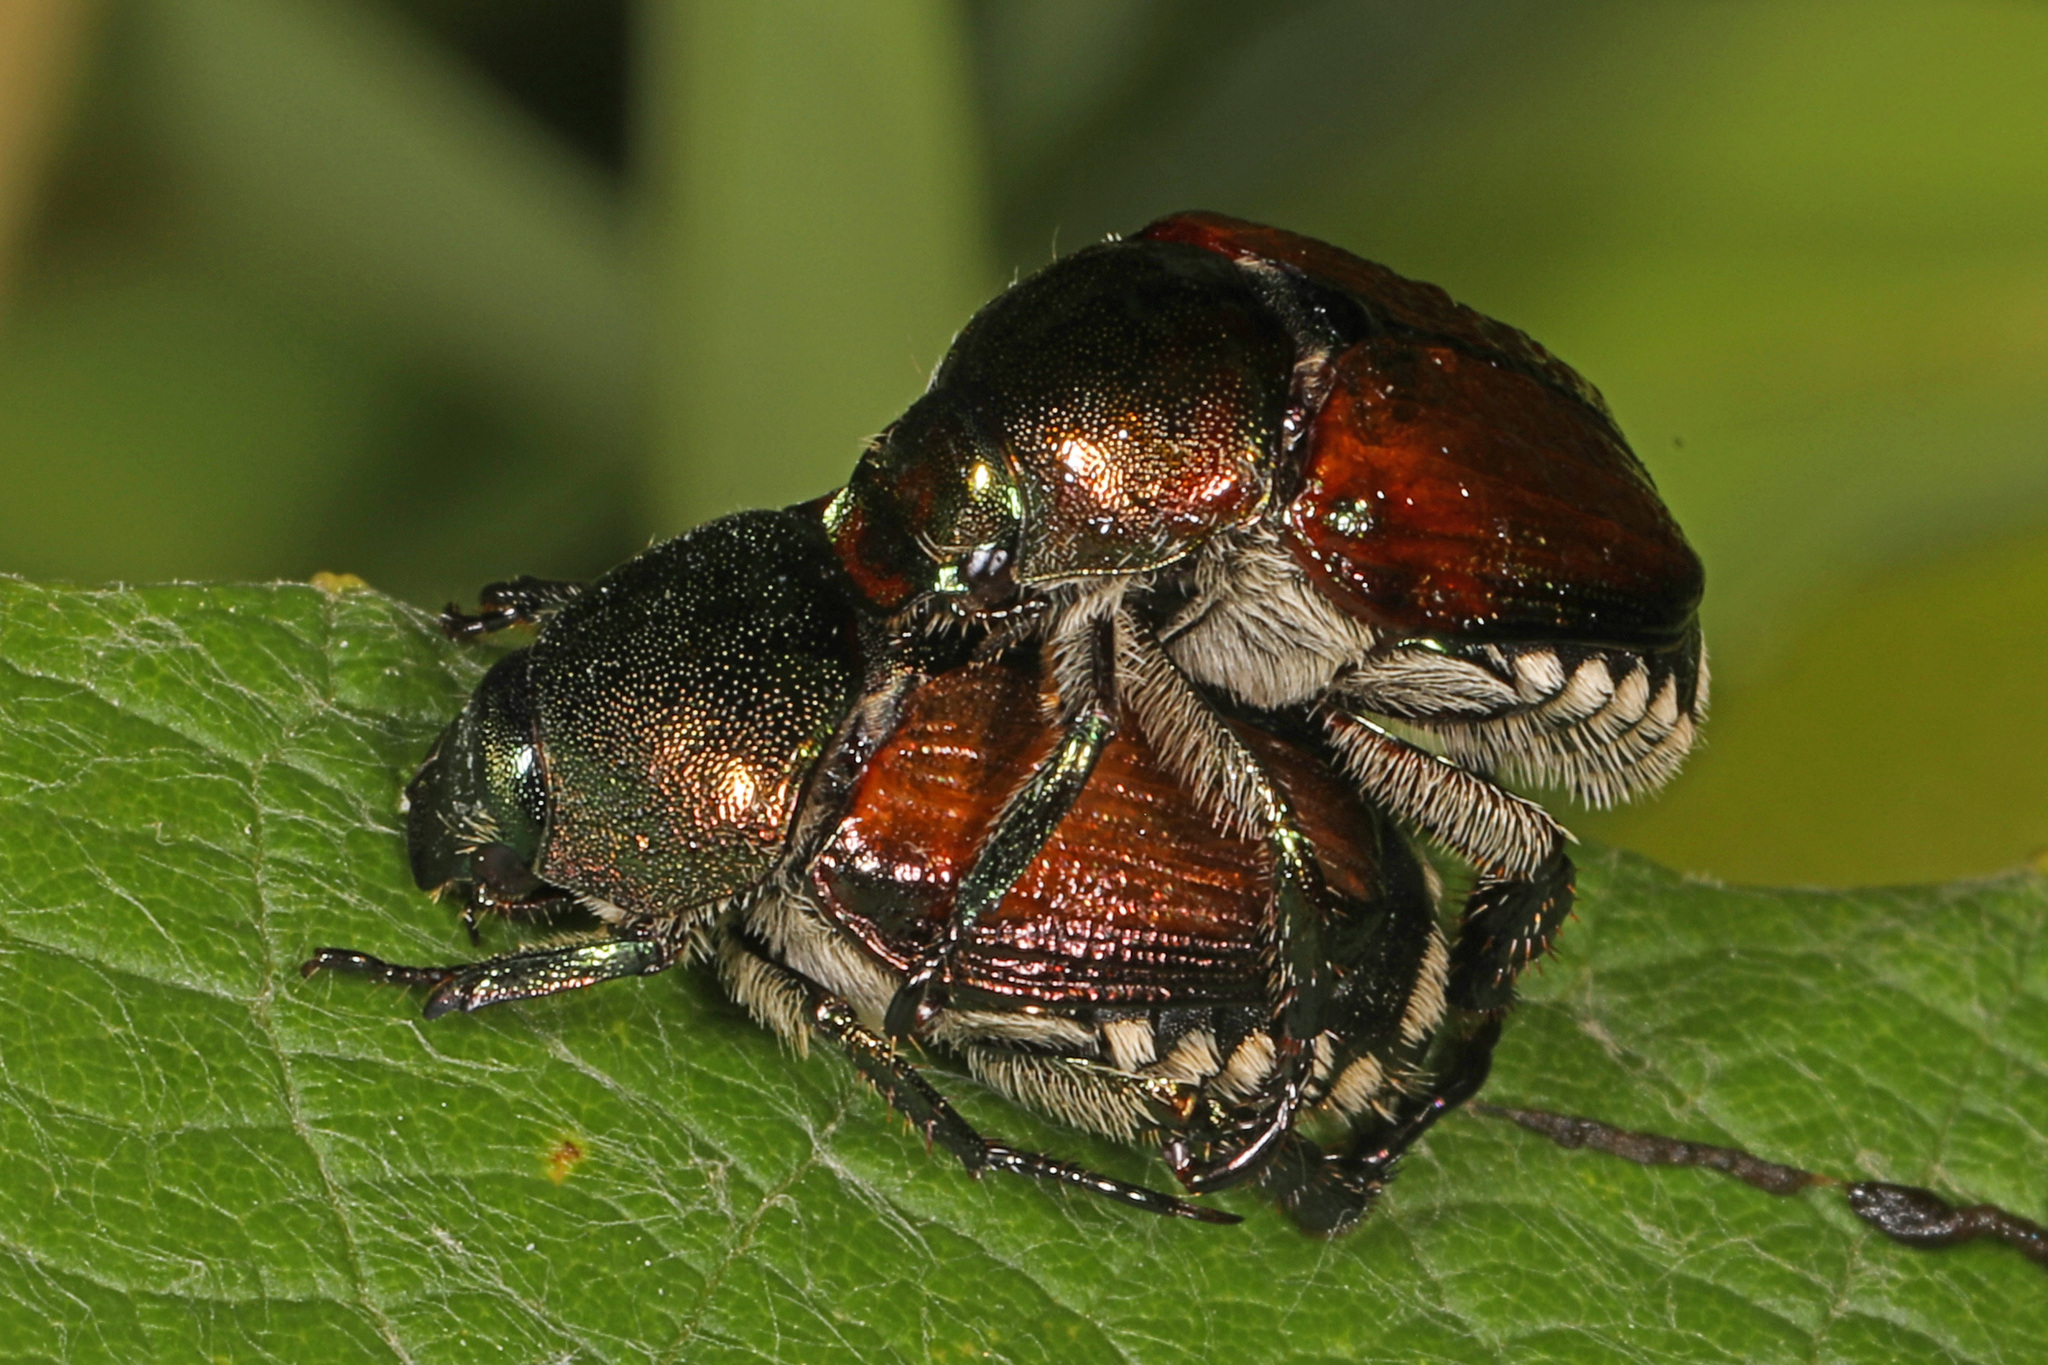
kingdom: Animalia
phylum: Arthropoda
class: Insecta
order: Coleoptera
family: Scarabaeidae
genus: Popillia
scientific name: Popillia japonica
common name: Japanese beetle
